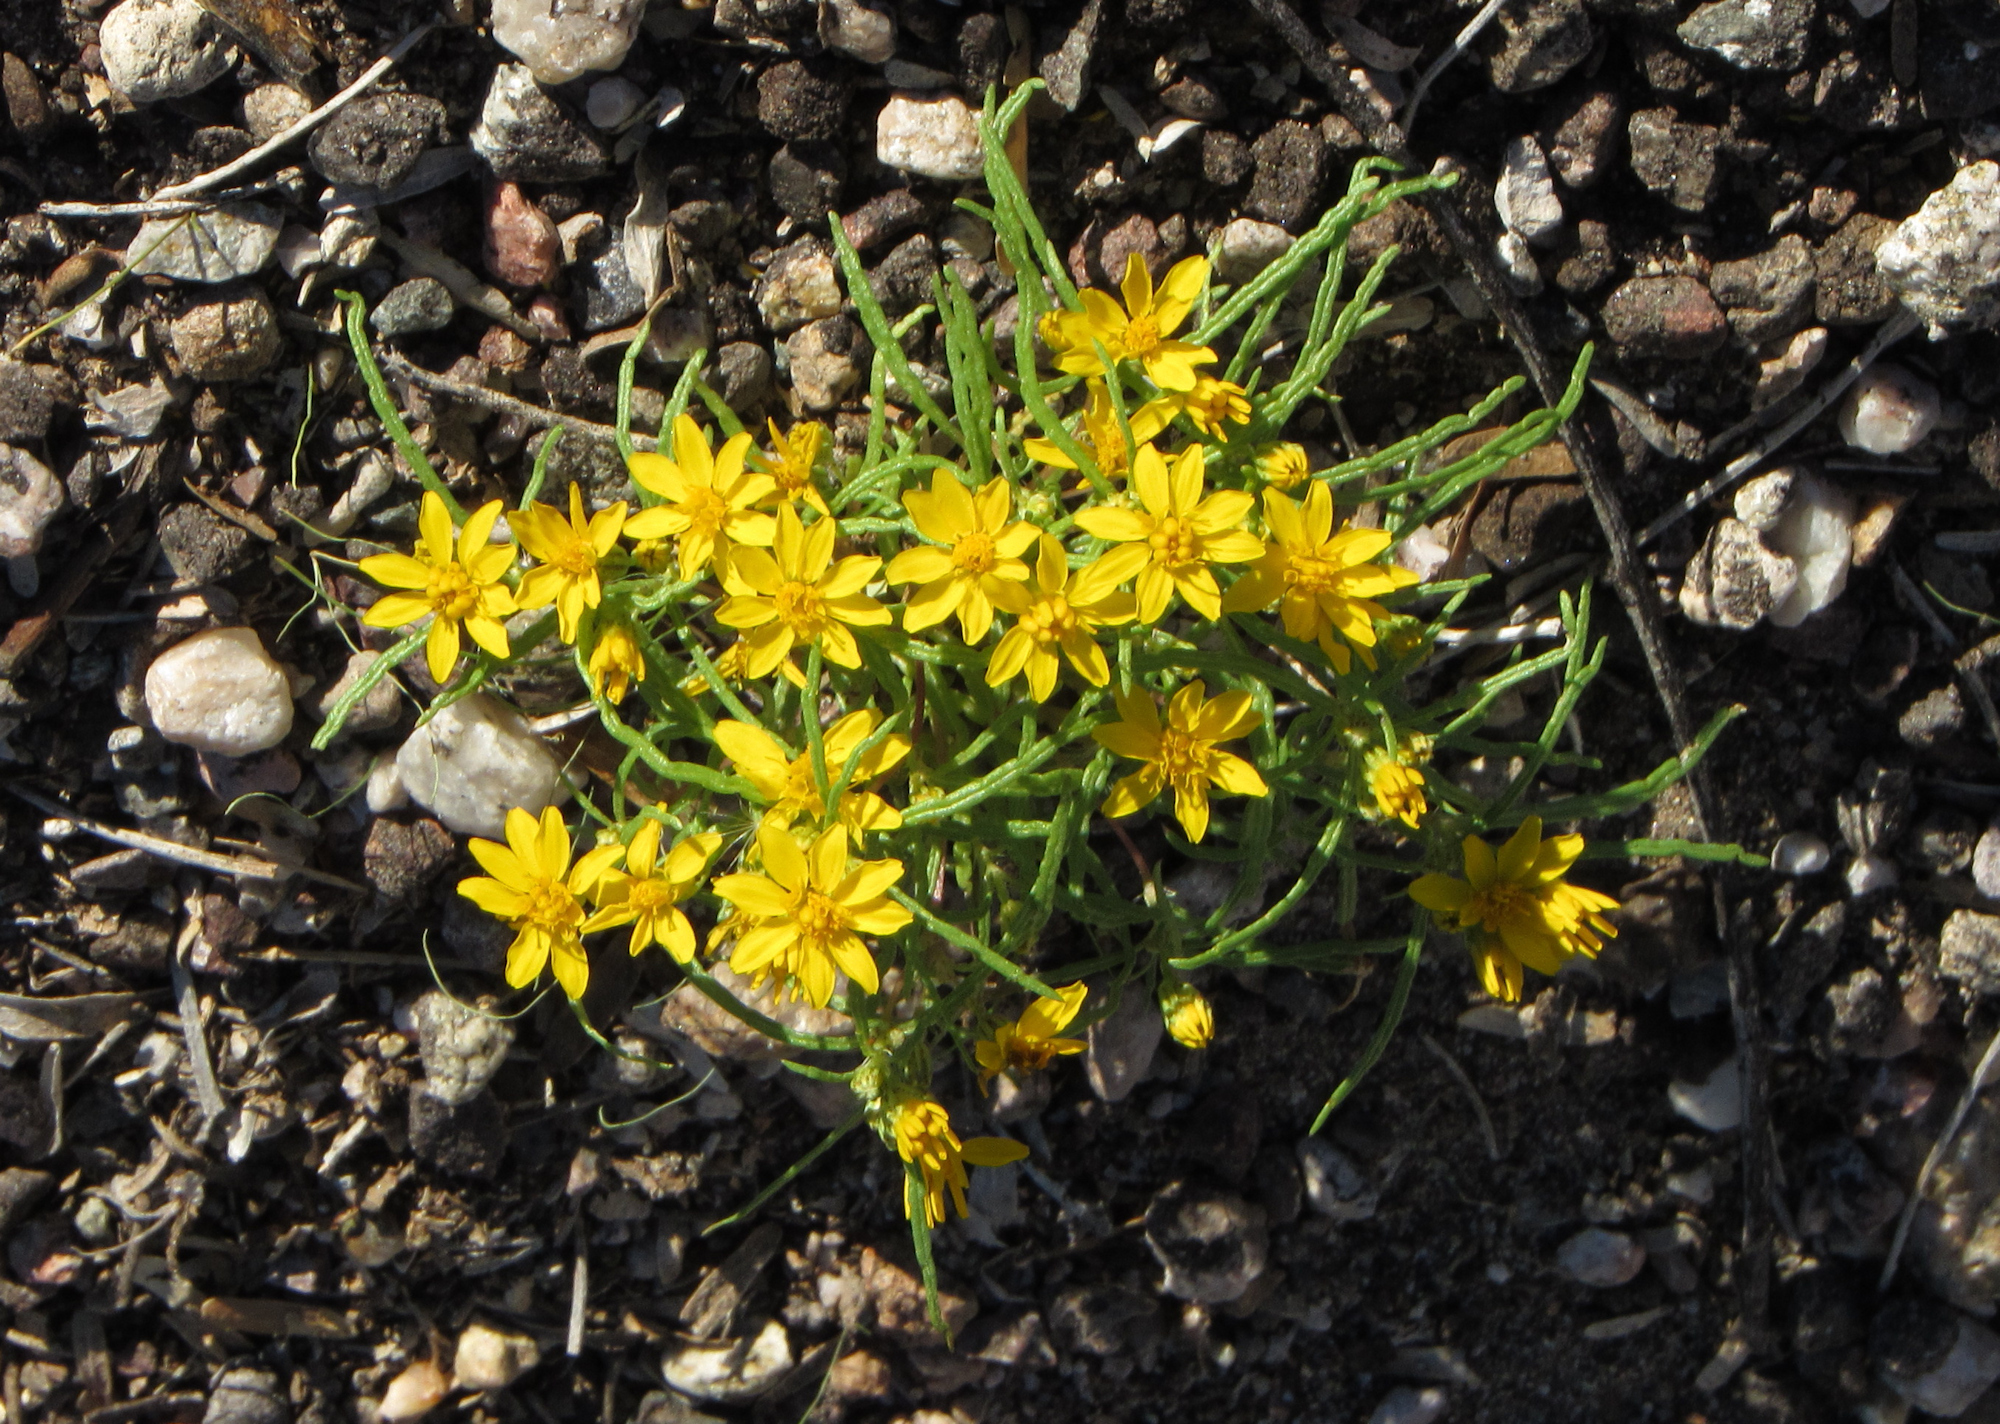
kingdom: Plantae
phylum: Tracheophyta
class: Magnoliopsida
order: Asterales
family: Asteraceae
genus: Pectis
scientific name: Pectis papposa
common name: Many-bristle chinchweed
